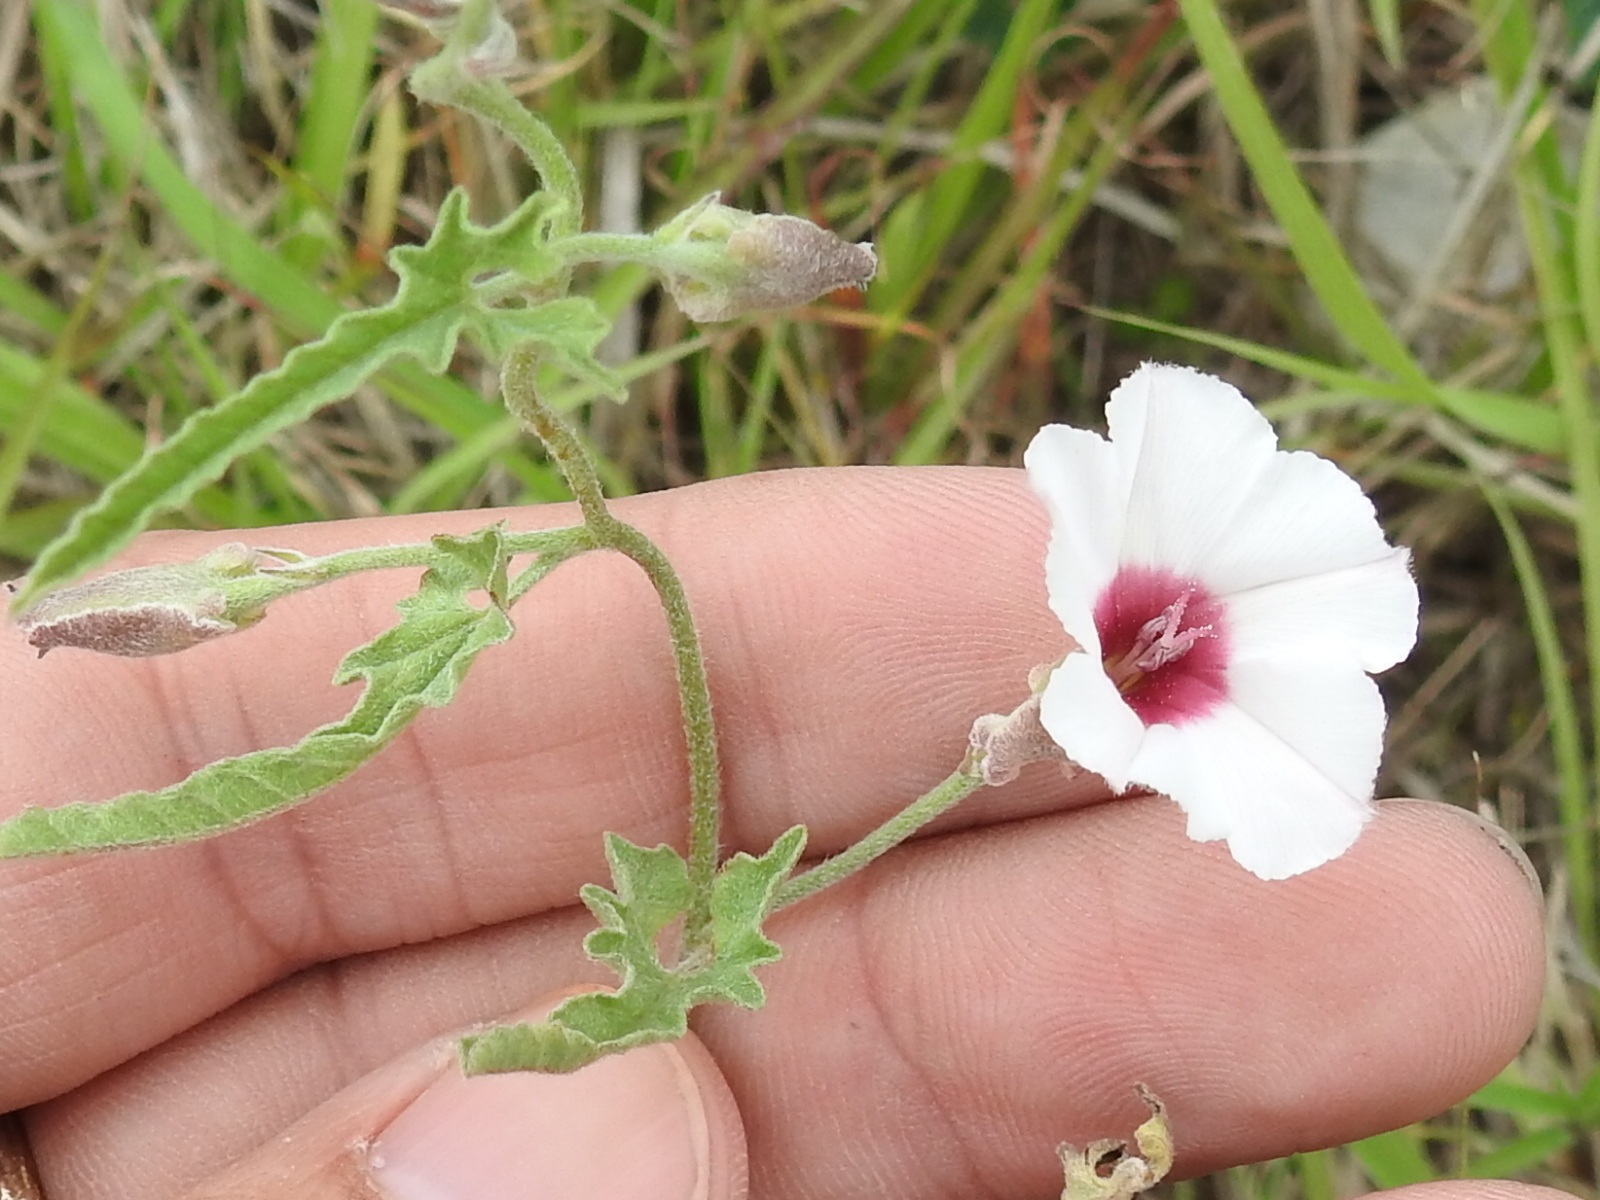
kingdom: Plantae
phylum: Tracheophyta
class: Magnoliopsida
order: Solanales
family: Convolvulaceae
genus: Convolvulus
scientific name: Convolvulus equitans
